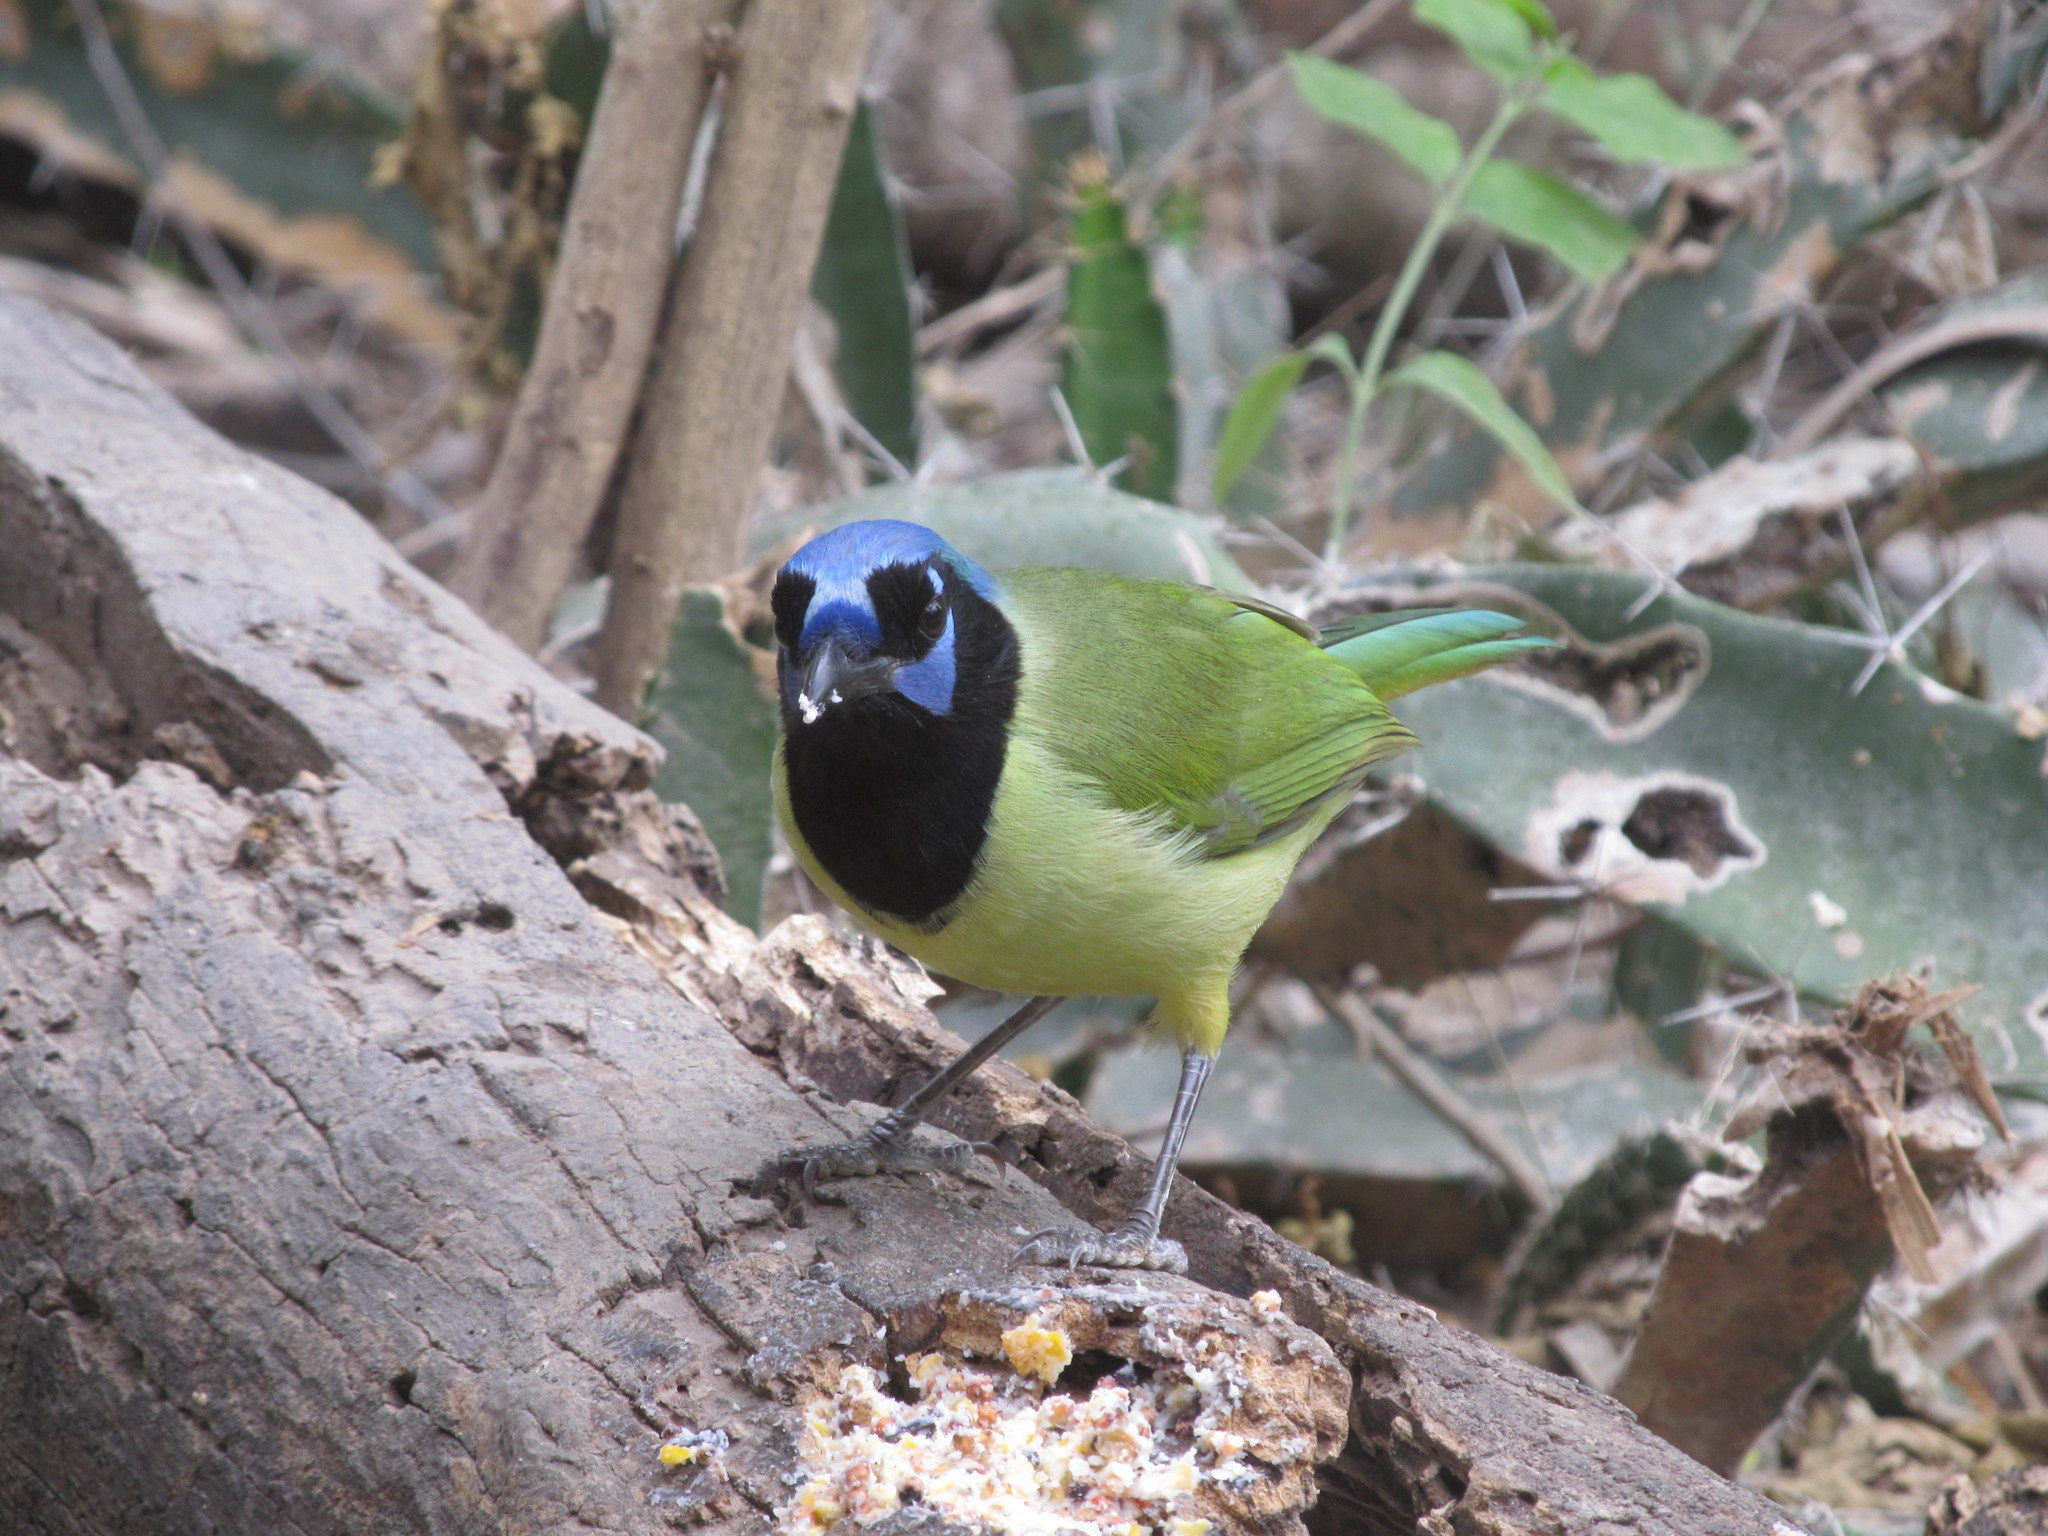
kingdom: Animalia
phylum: Chordata
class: Aves
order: Passeriformes
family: Corvidae
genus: Cyanocorax
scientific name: Cyanocorax yncas
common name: Green jay
